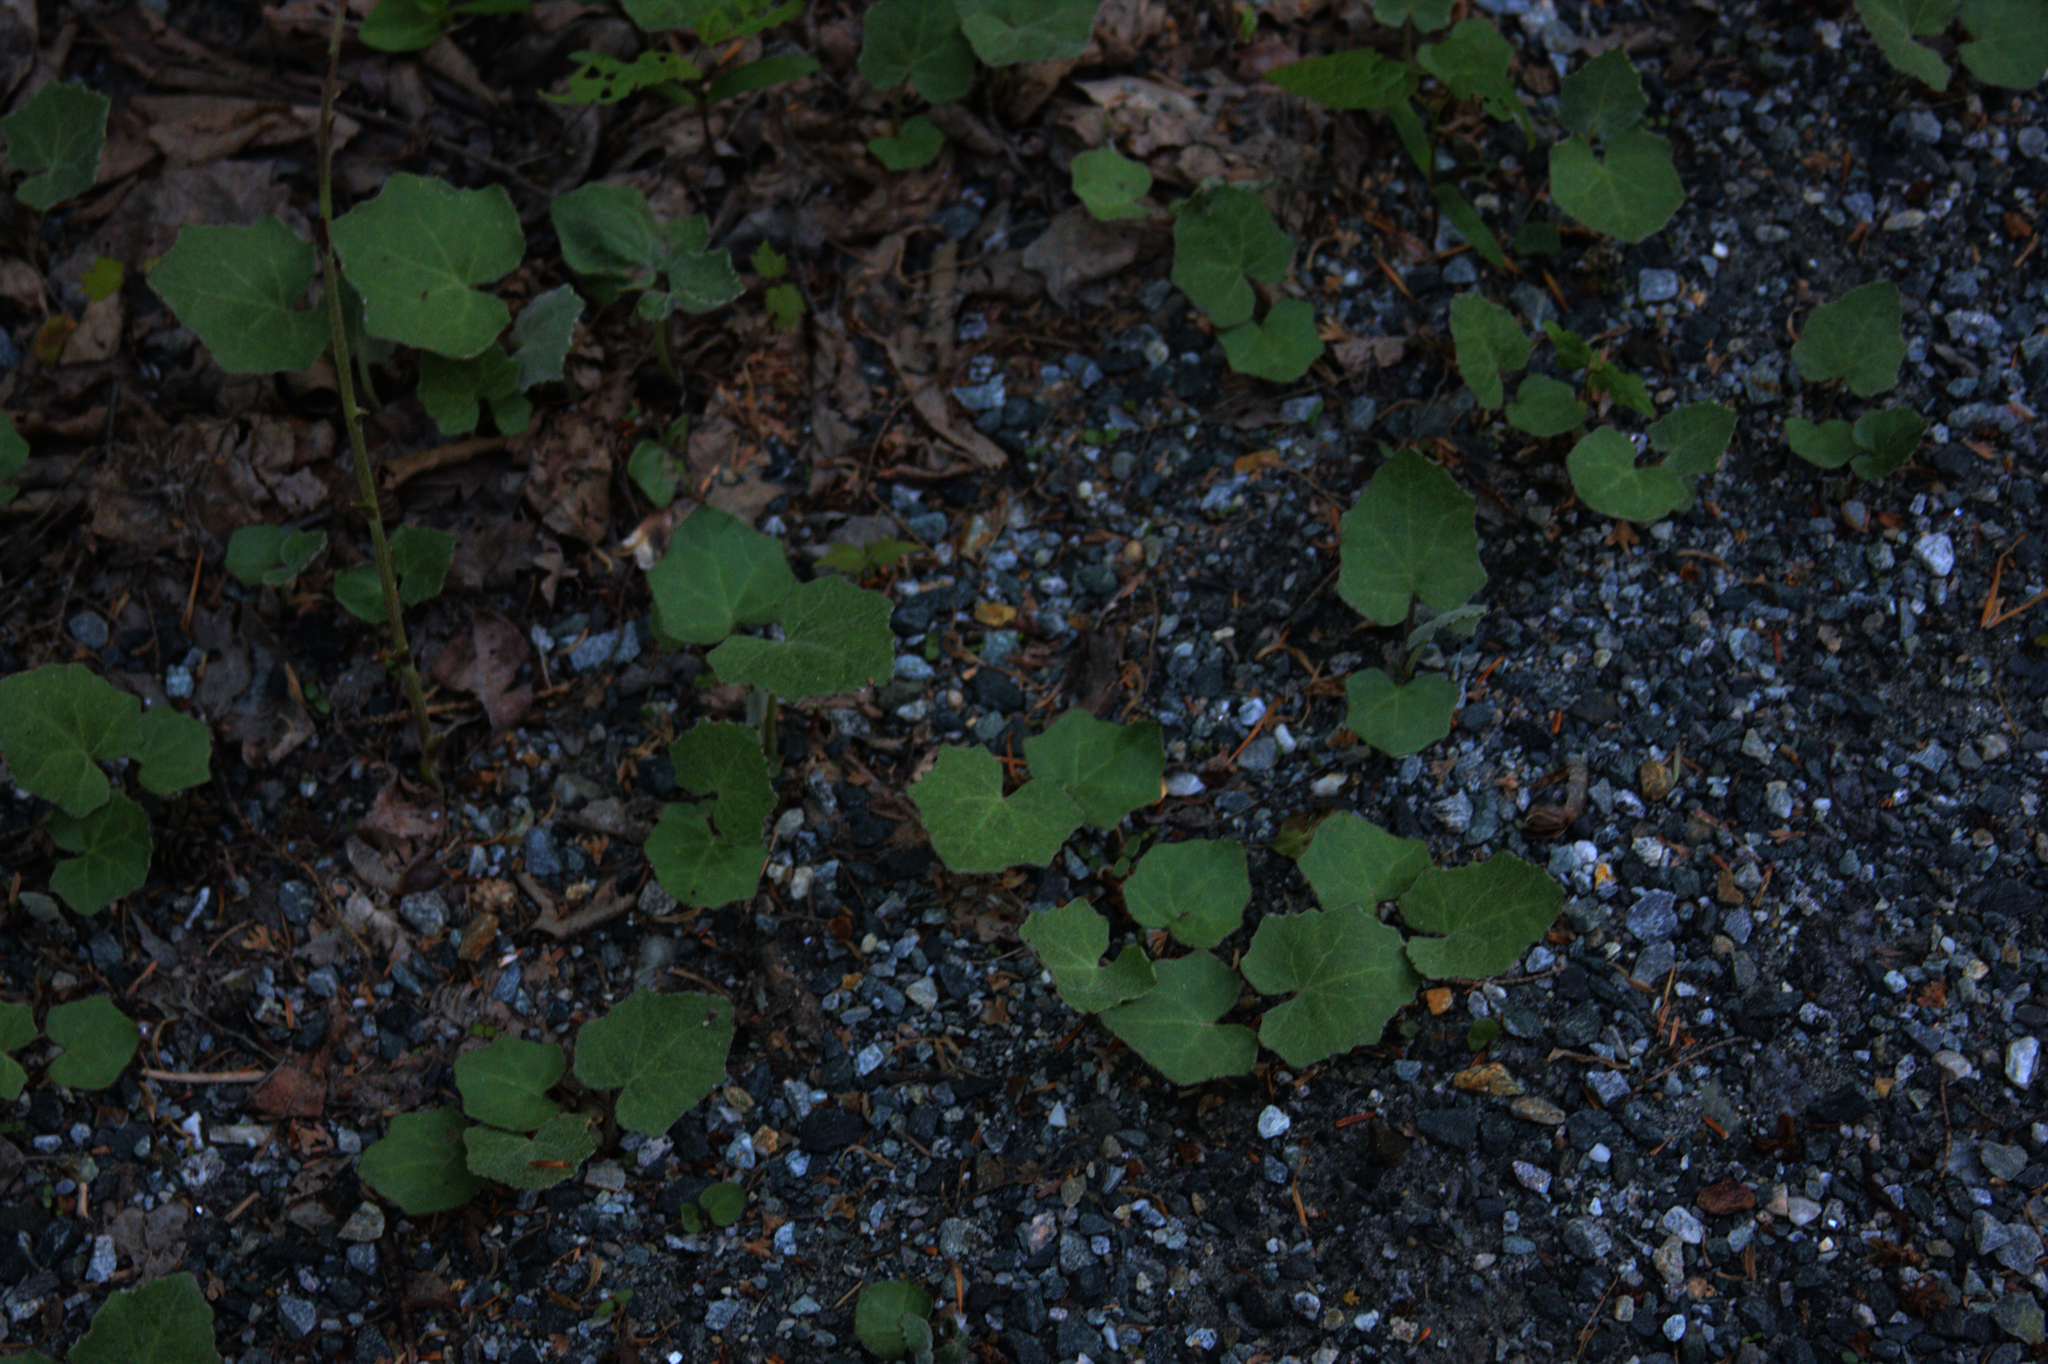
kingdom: Plantae
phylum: Tracheophyta
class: Magnoliopsida
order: Asterales
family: Asteraceae
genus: Tussilago
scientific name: Tussilago farfara
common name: Coltsfoot
